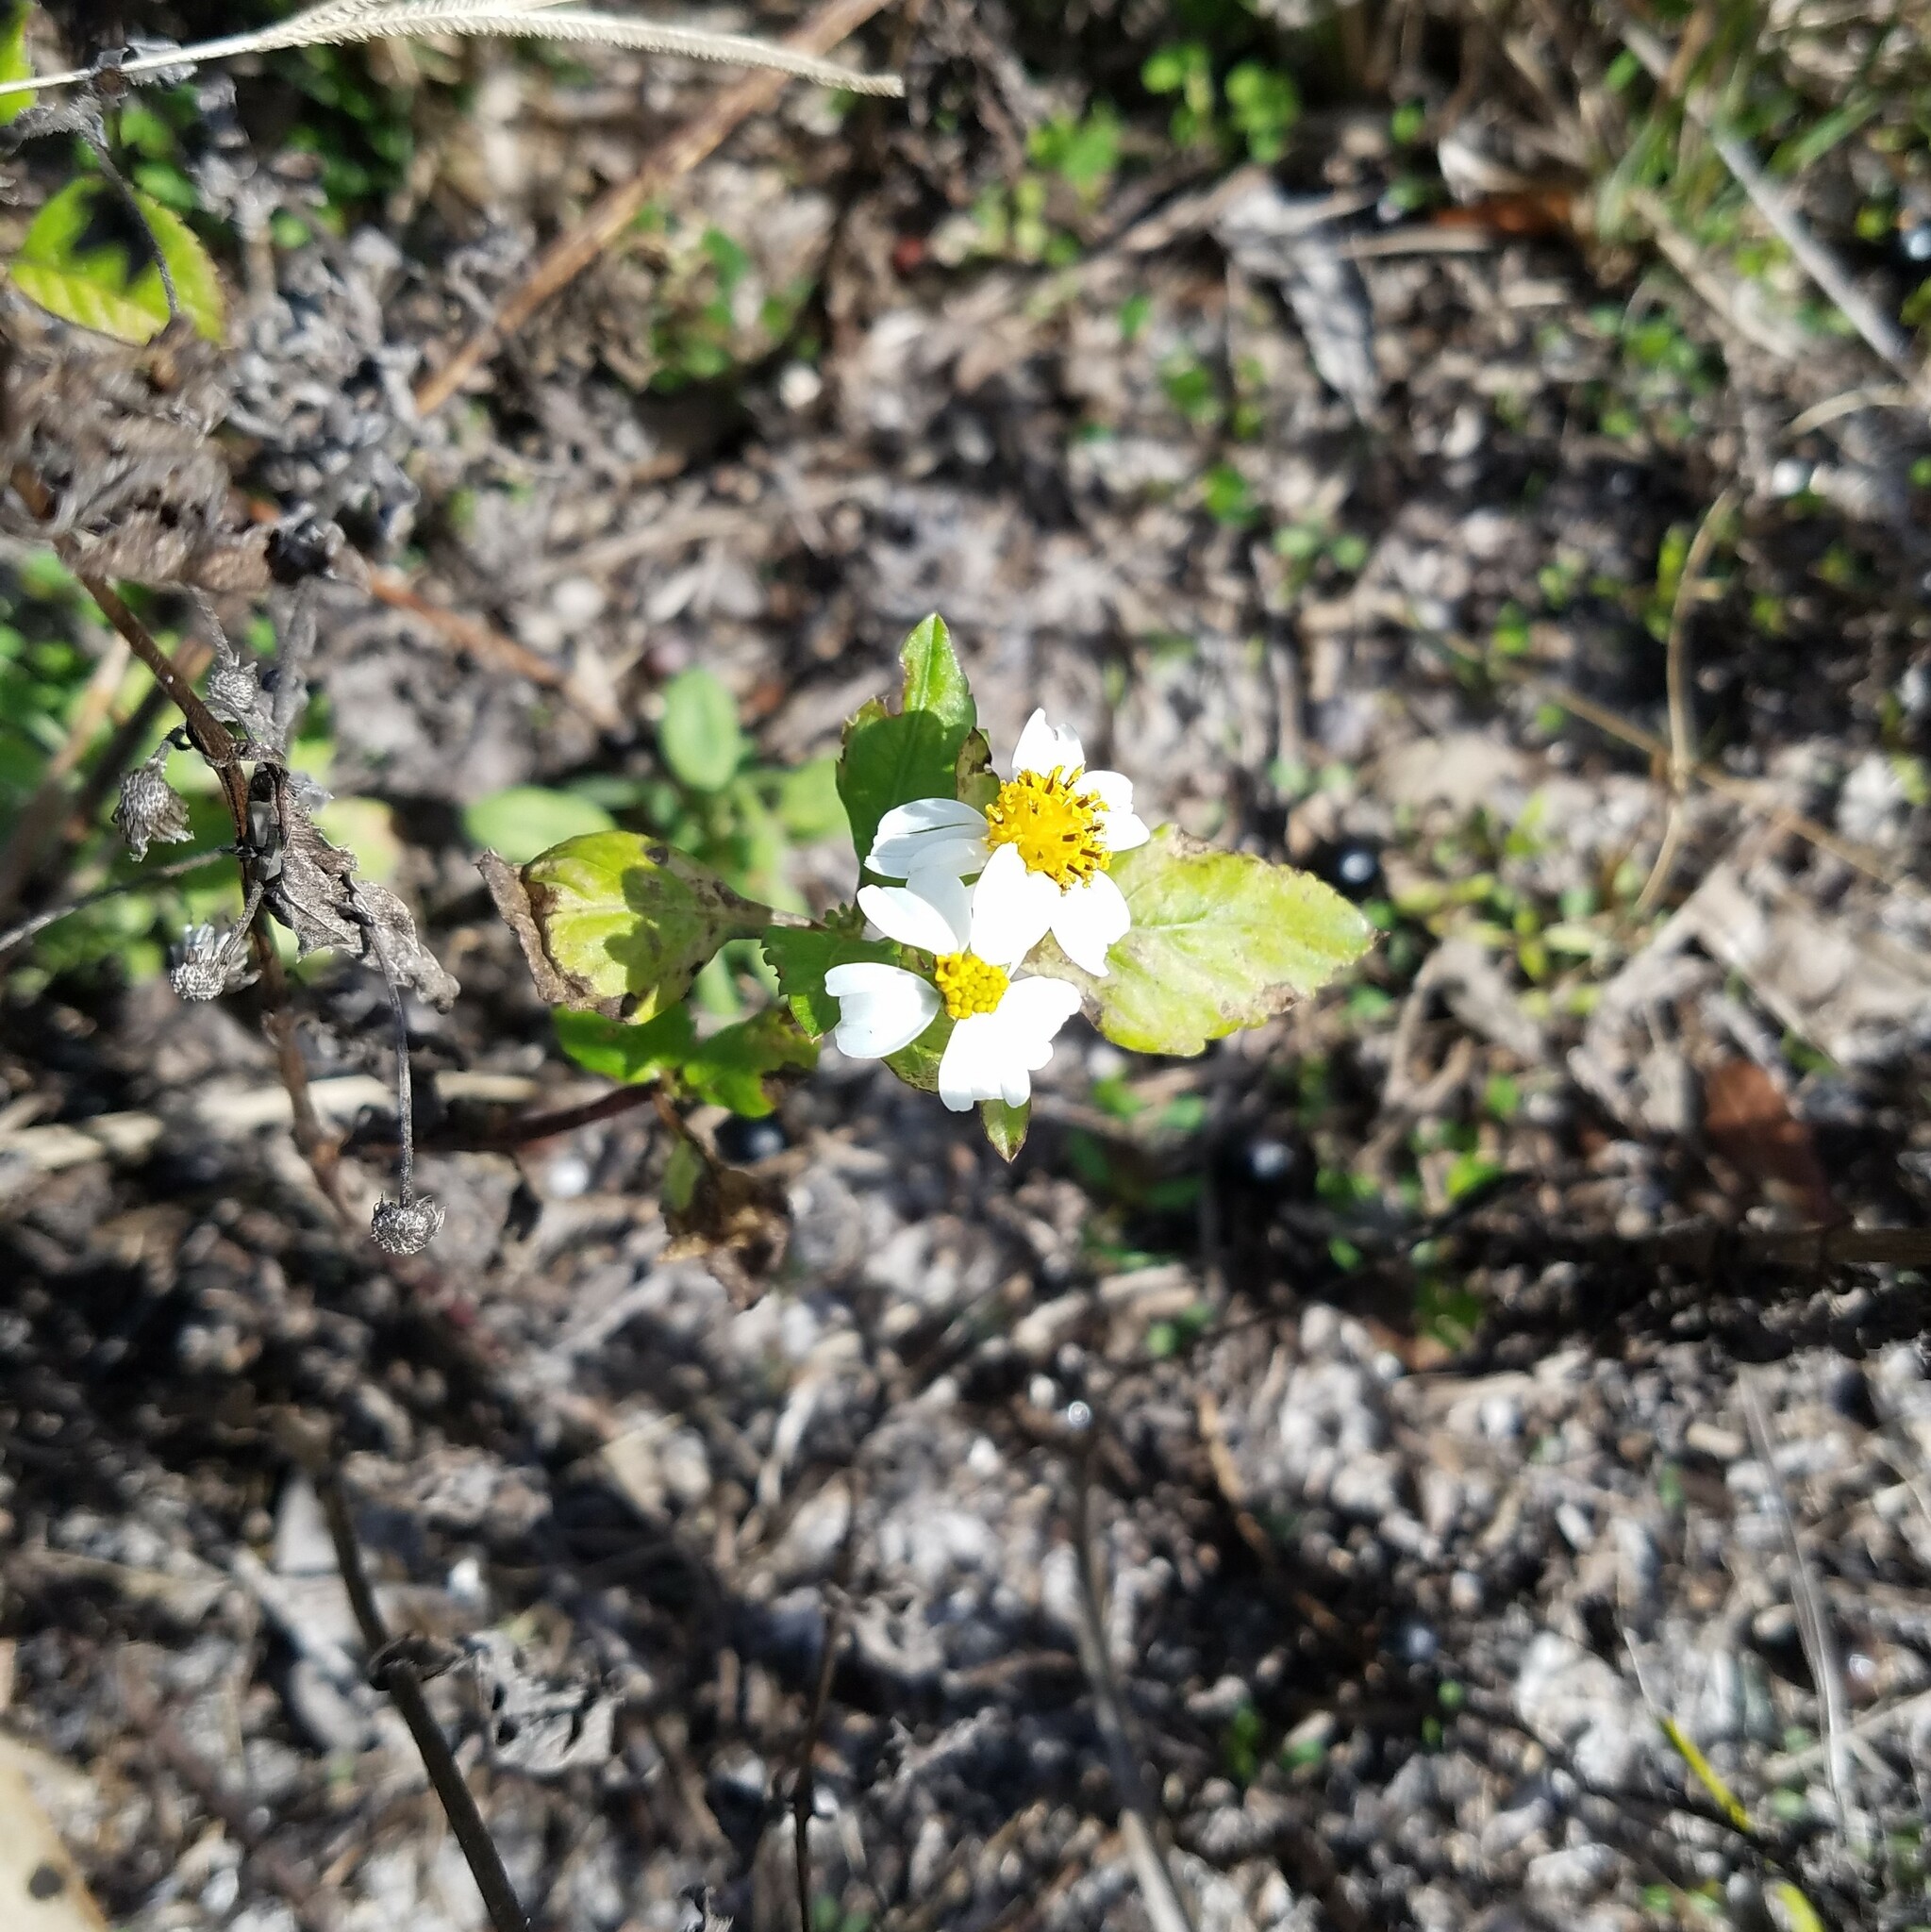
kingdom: Plantae
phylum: Tracheophyta
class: Magnoliopsida
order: Asterales
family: Asteraceae
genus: Bidens
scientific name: Bidens alba
